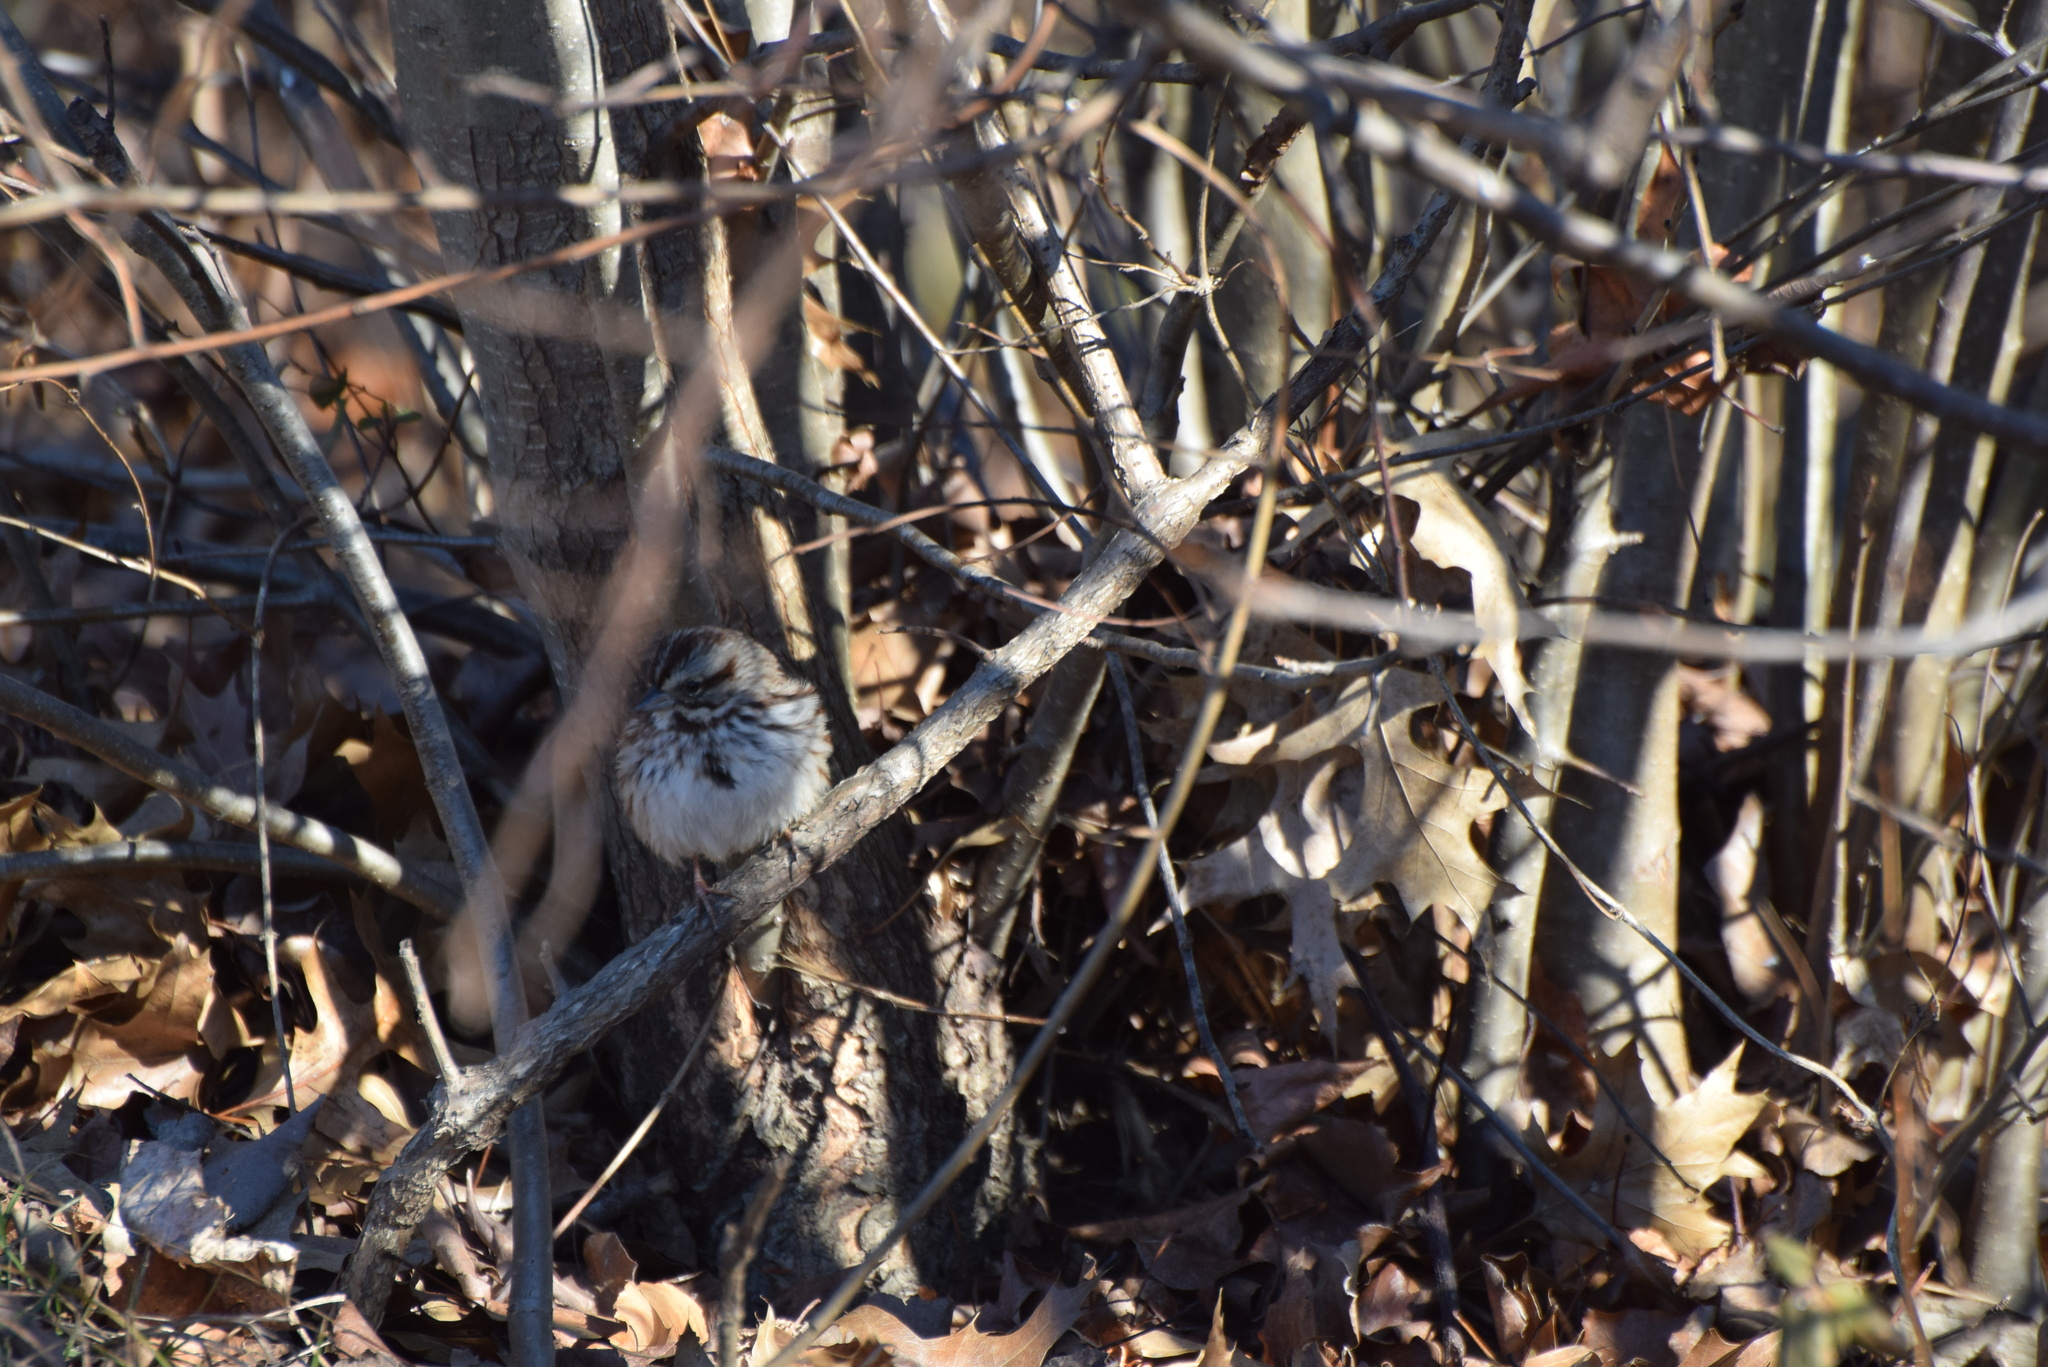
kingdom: Animalia
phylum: Chordata
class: Aves
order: Passeriformes
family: Passerellidae
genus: Melospiza
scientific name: Melospiza melodia
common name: Song sparrow
